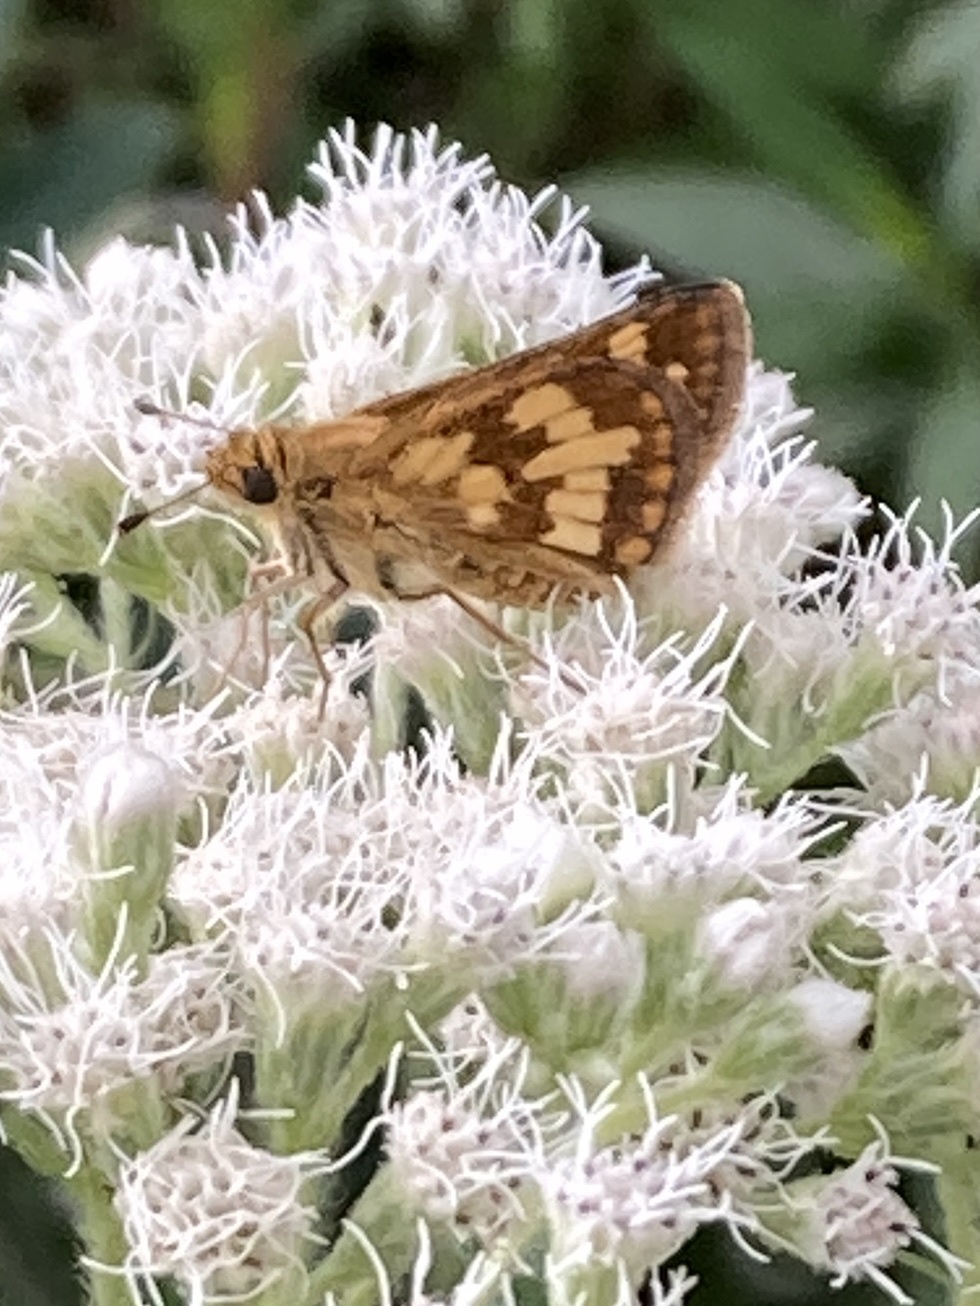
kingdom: Animalia
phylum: Arthropoda
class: Insecta
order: Lepidoptera
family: Hesperiidae
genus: Polites
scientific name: Polites coras
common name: Peck's skipper
